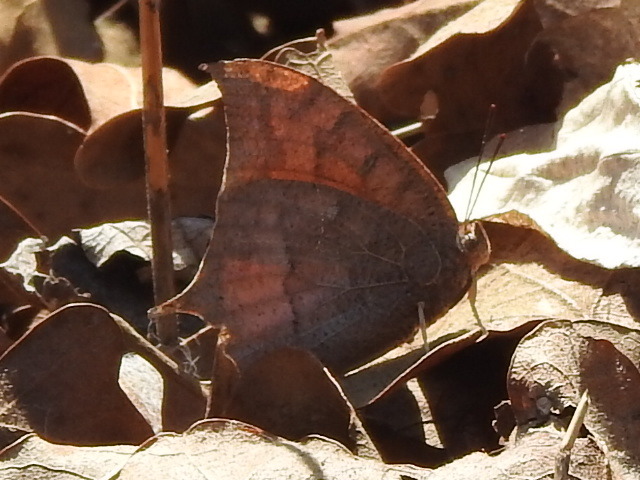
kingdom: Animalia
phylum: Arthropoda
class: Insecta
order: Lepidoptera
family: Nymphalidae
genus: Anaea
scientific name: Anaea andria
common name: Goatweed leafwing
